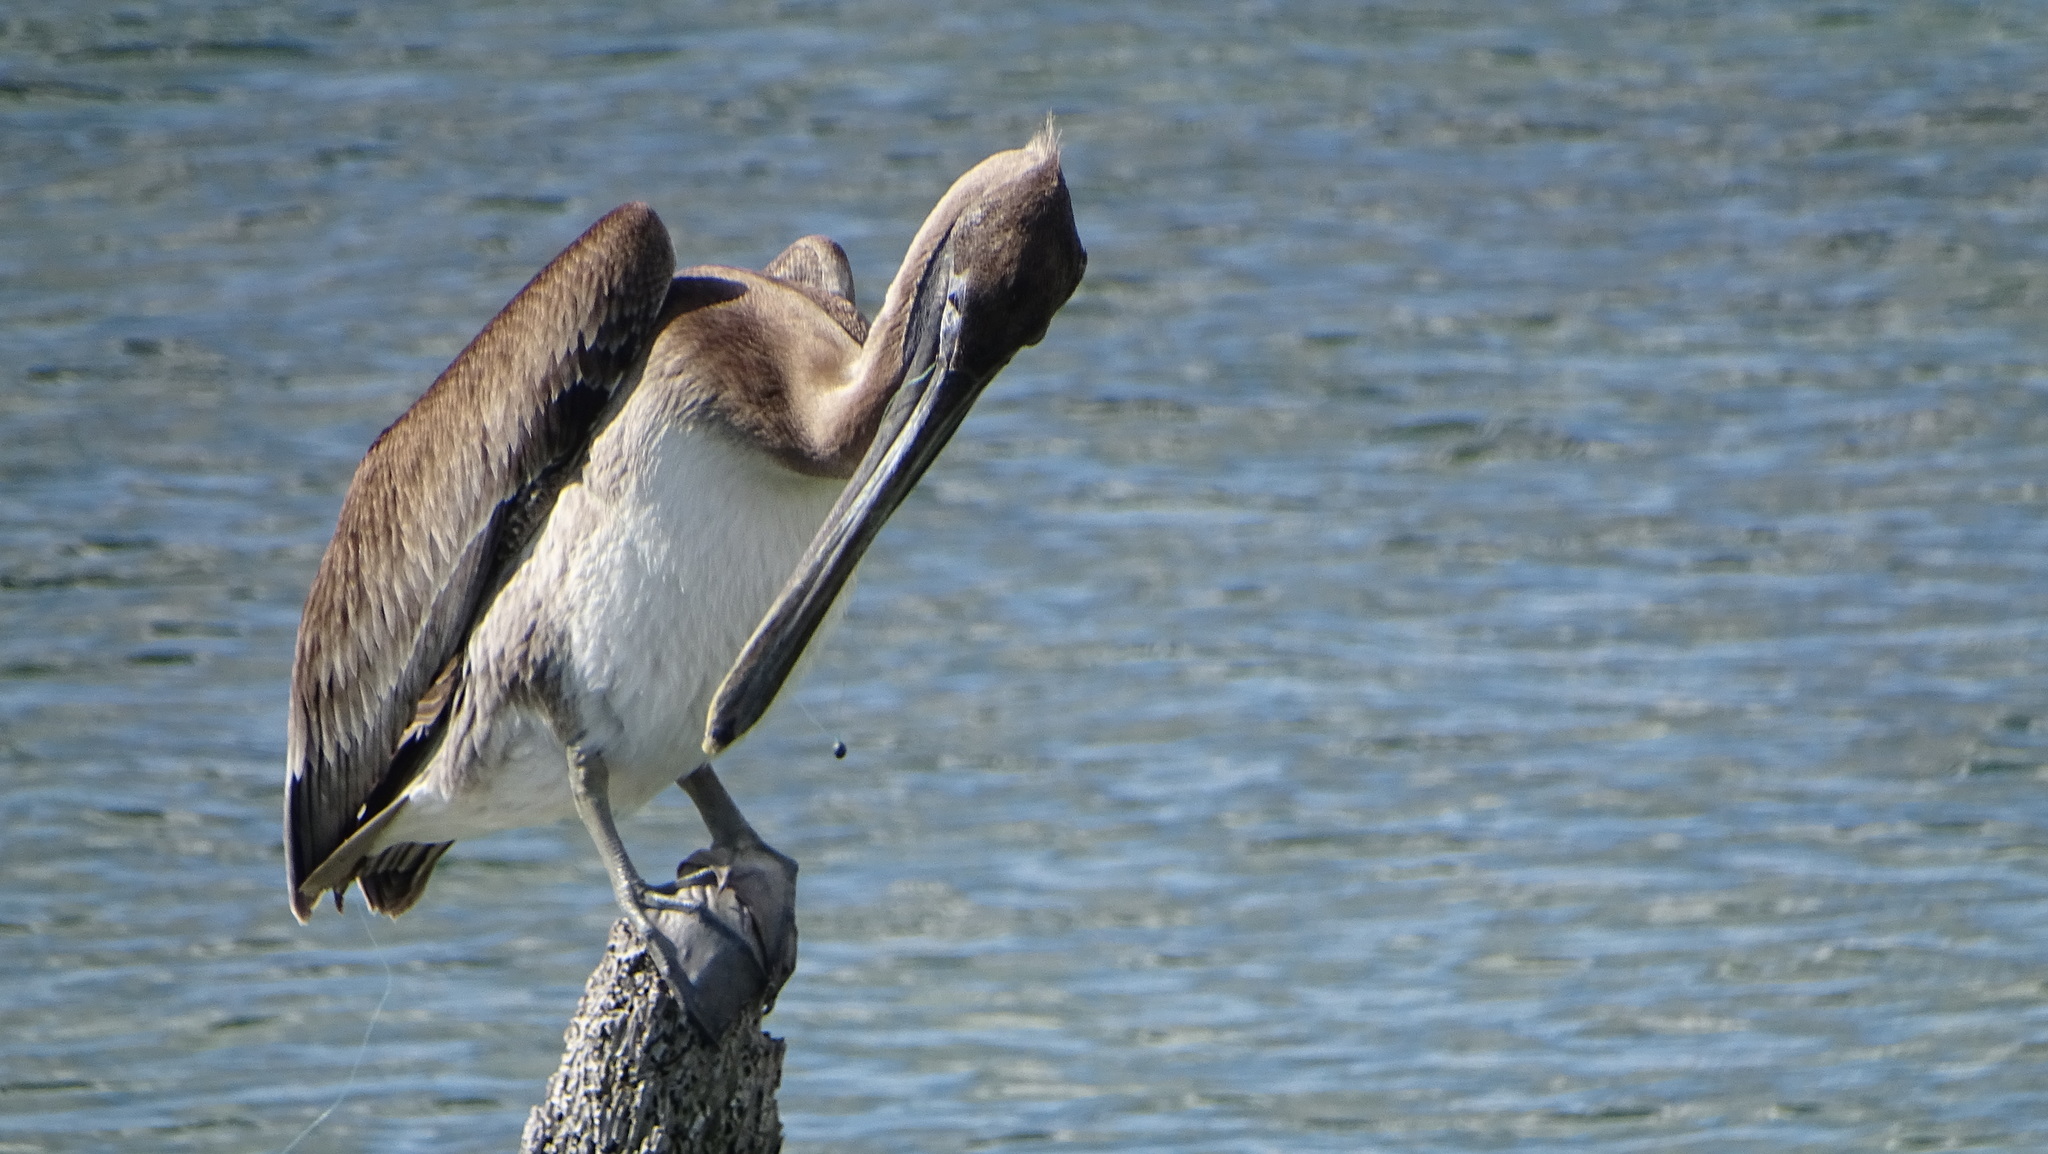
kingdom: Animalia
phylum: Chordata
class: Aves
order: Pelecaniformes
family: Pelecanidae
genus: Pelecanus
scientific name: Pelecanus occidentalis
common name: Brown pelican
